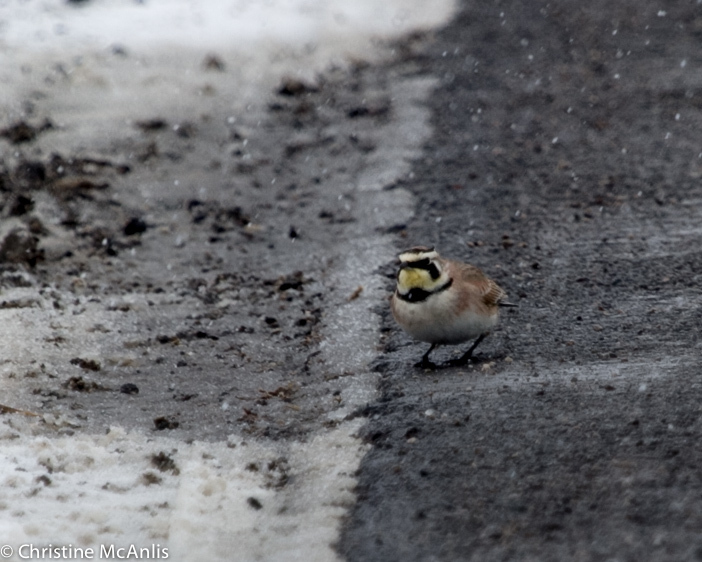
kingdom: Animalia
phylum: Chordata
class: Aves
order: Passeriformes
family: Alaudidae
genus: Eremophila
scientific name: Eremophila alpestris
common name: Horned lark
